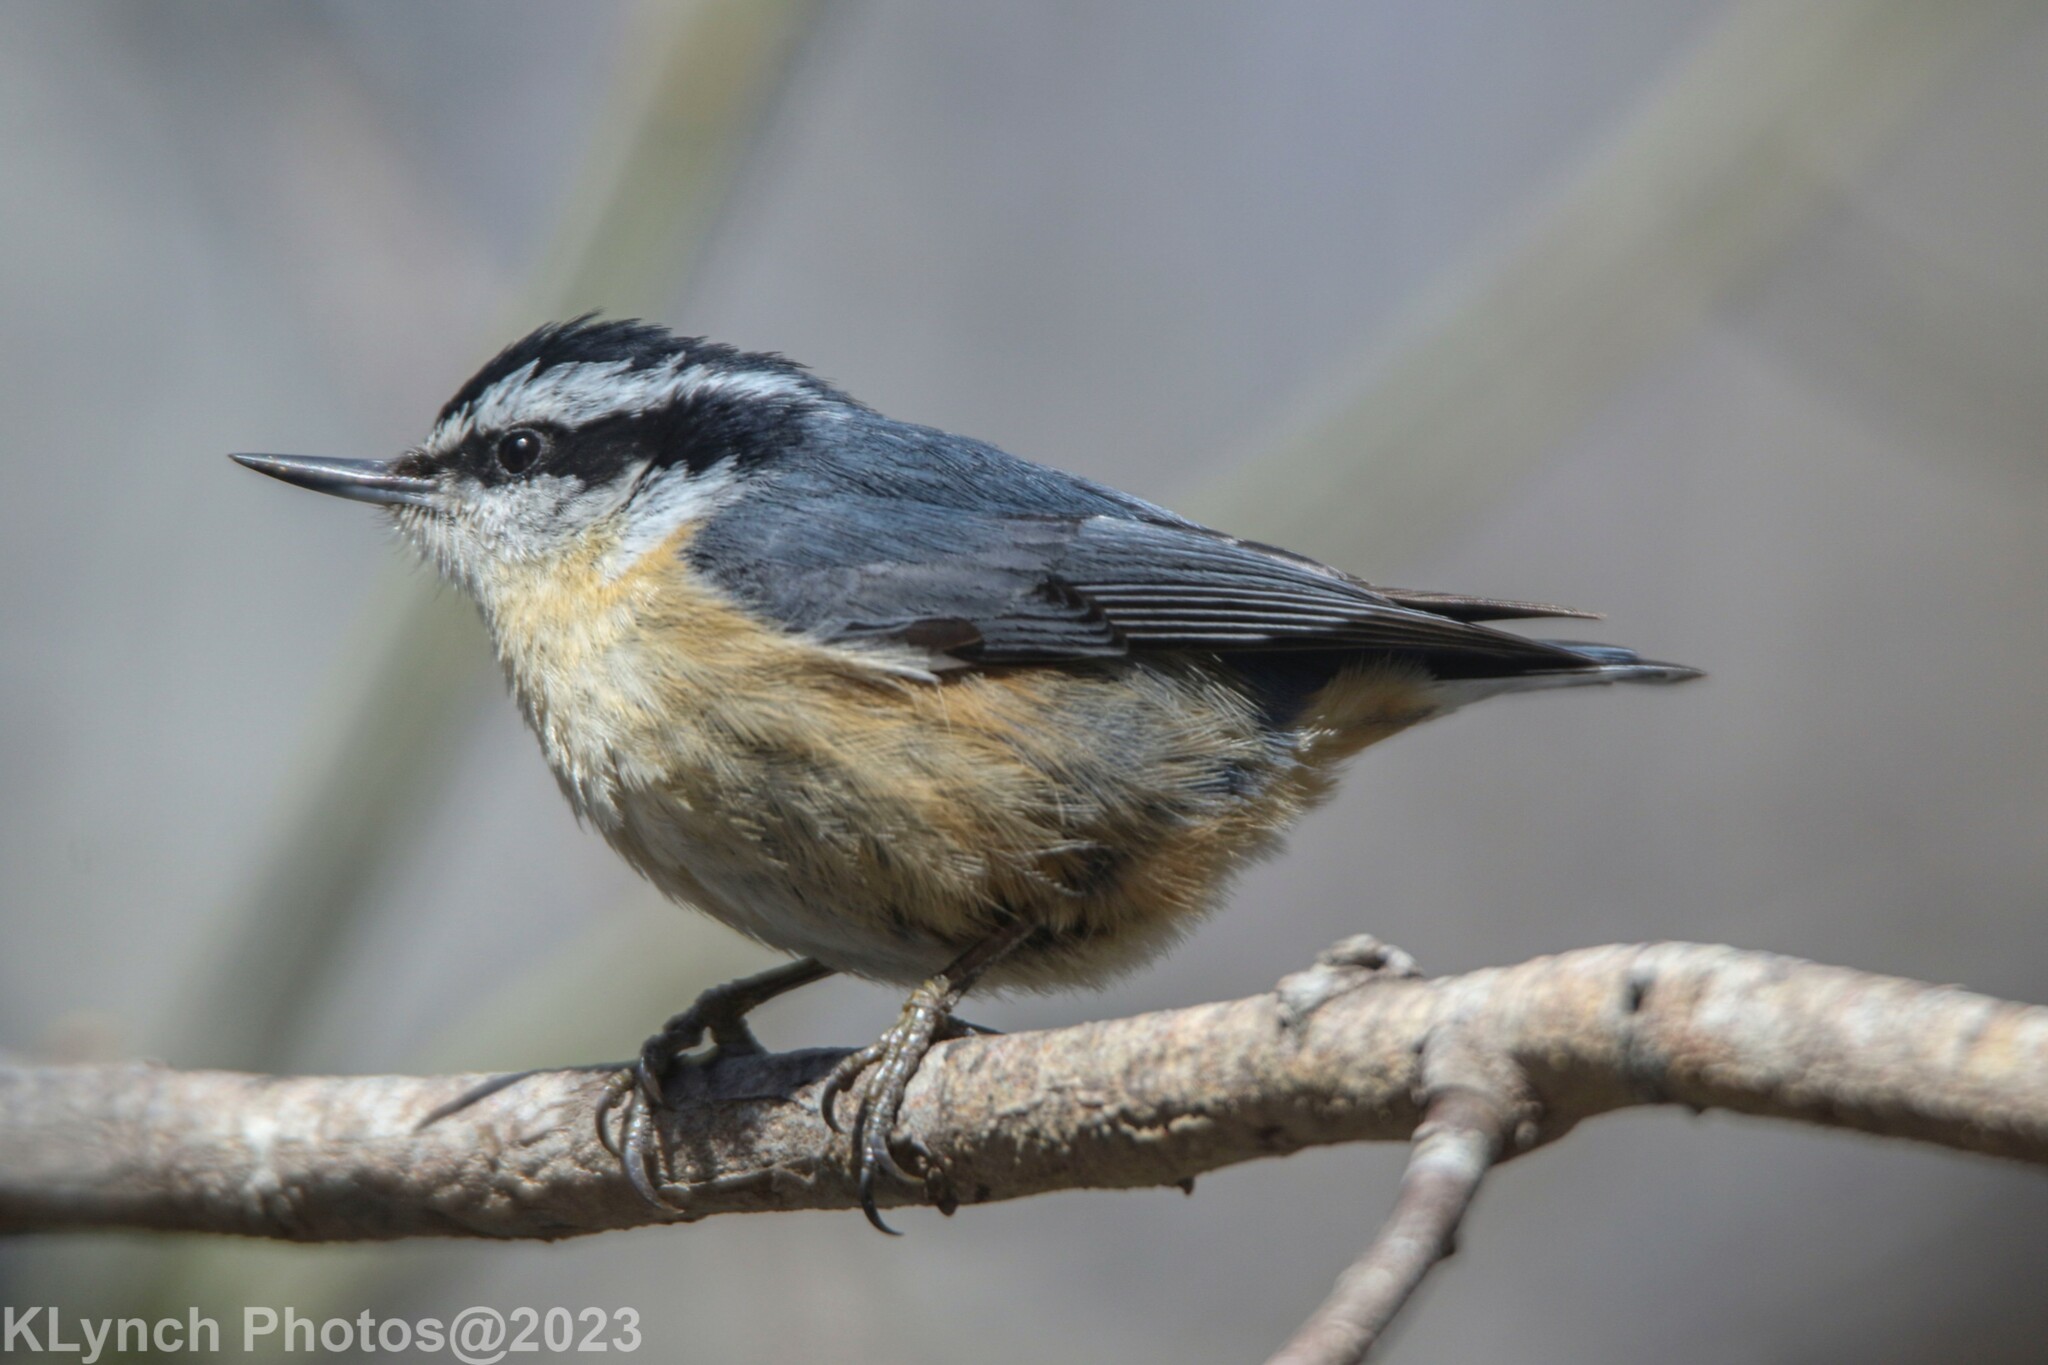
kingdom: Animalia
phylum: Chordata
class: Aves
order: Passeriformes
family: Sittidae
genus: Sitta
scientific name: Sitta canadensis
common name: Red-breasted nuthatch
